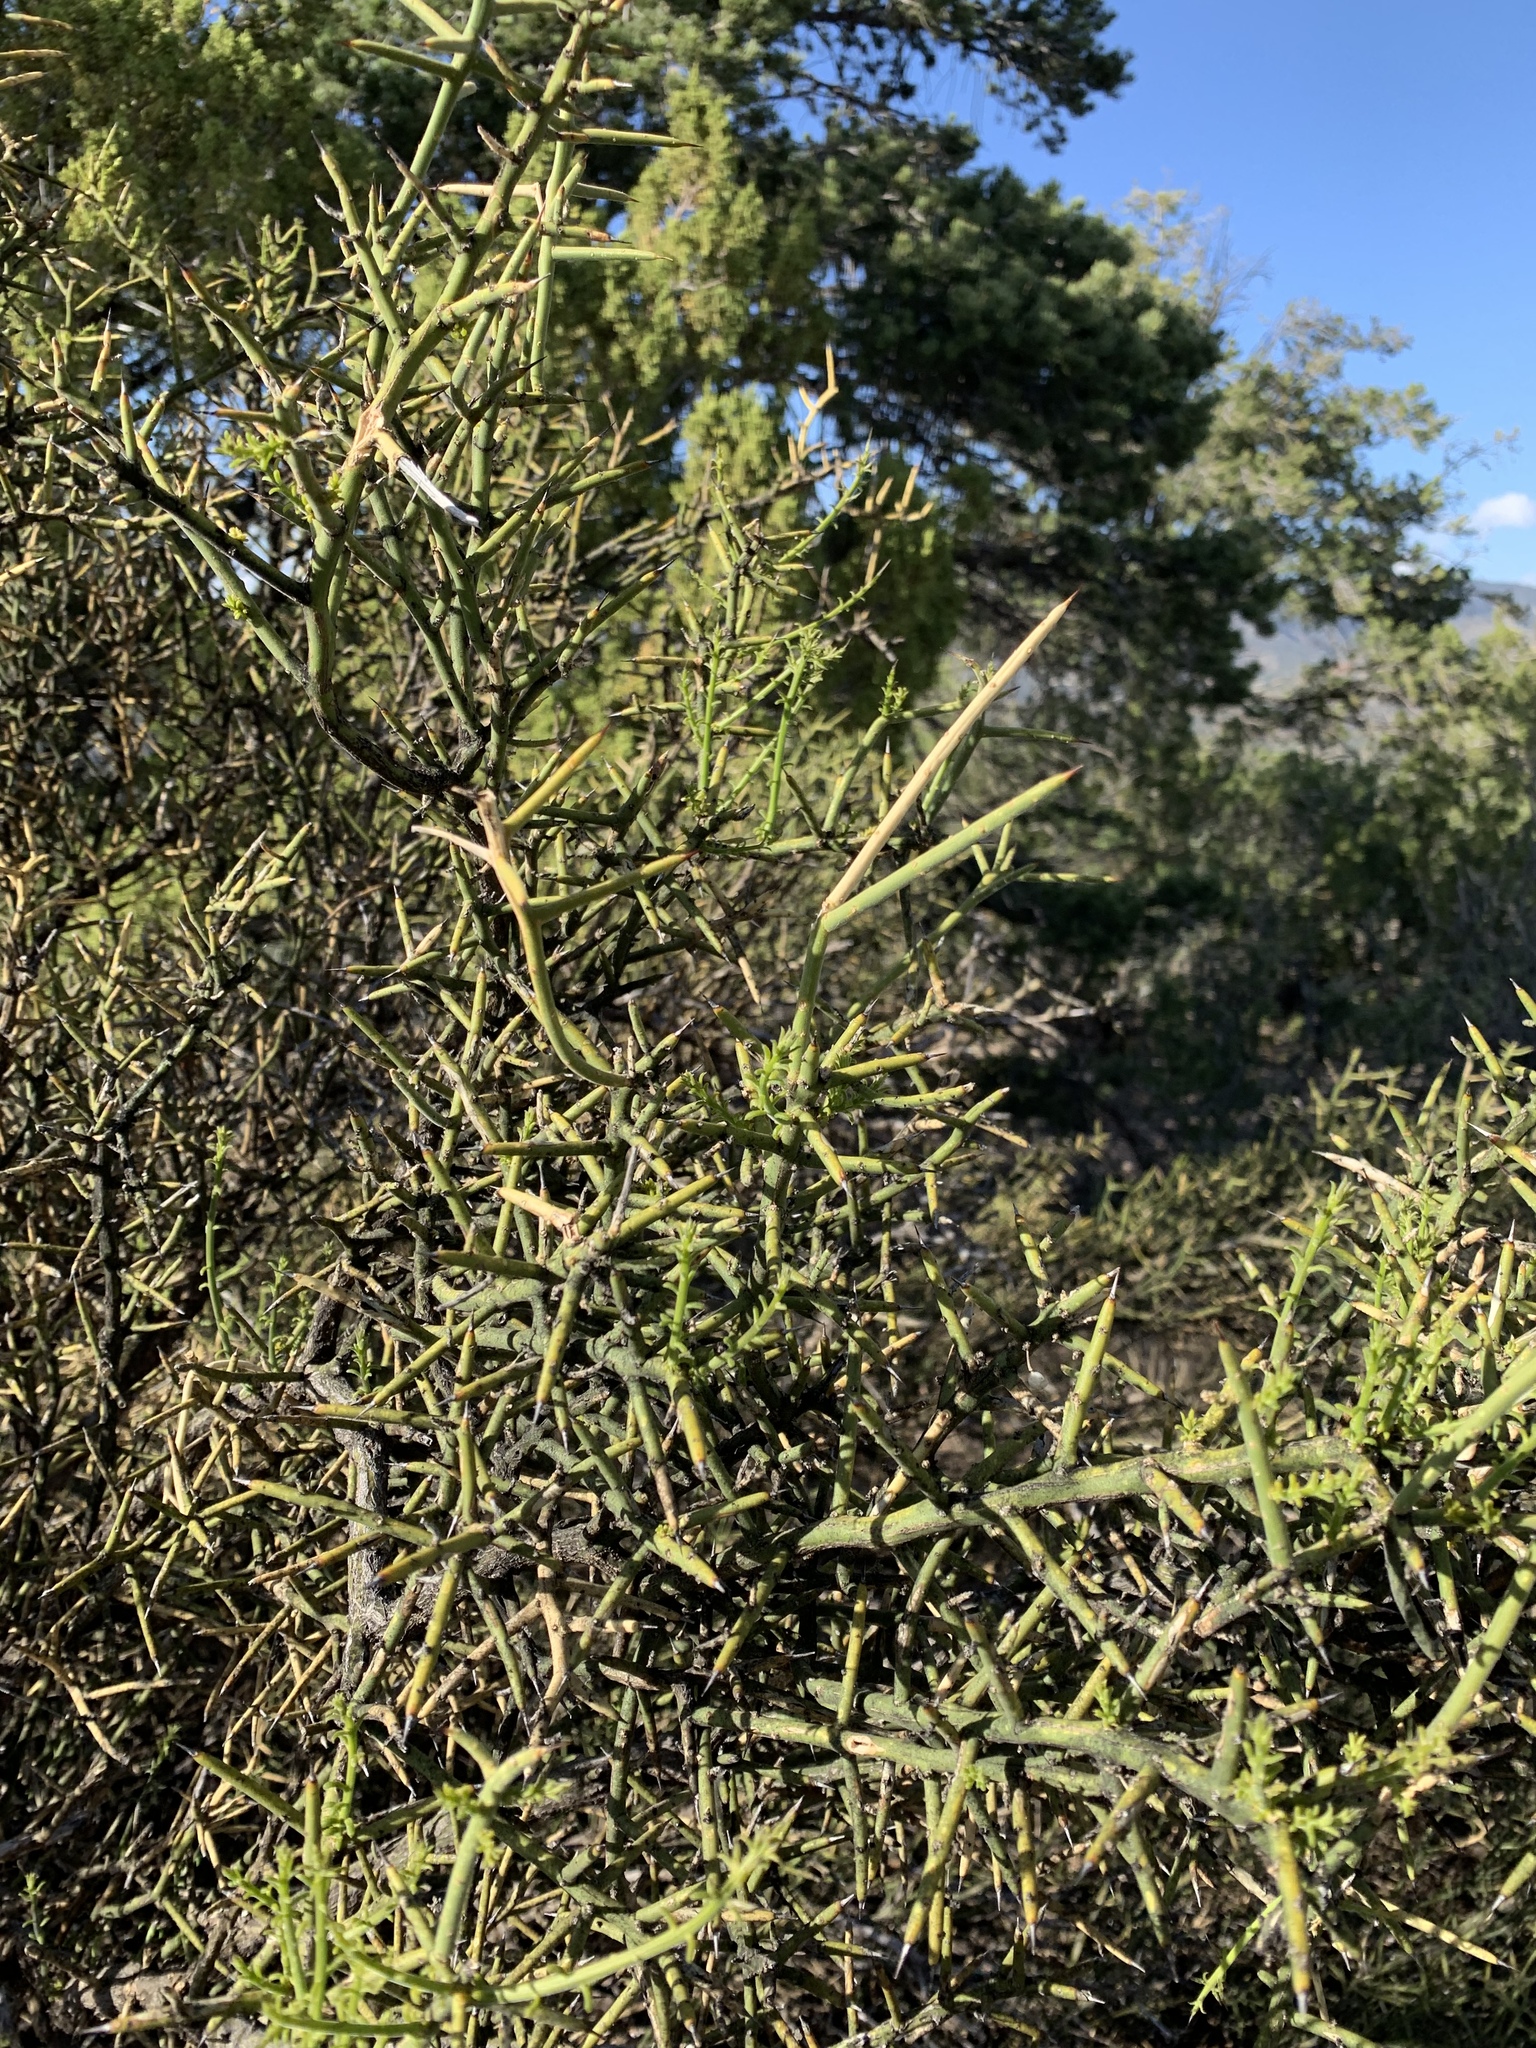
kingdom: Plantae
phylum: Tracheophyta
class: Magnoliopsida
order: Brassicales
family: Koeberliniaceae
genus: Koeberlinia
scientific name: Koeberlinia spinosa
